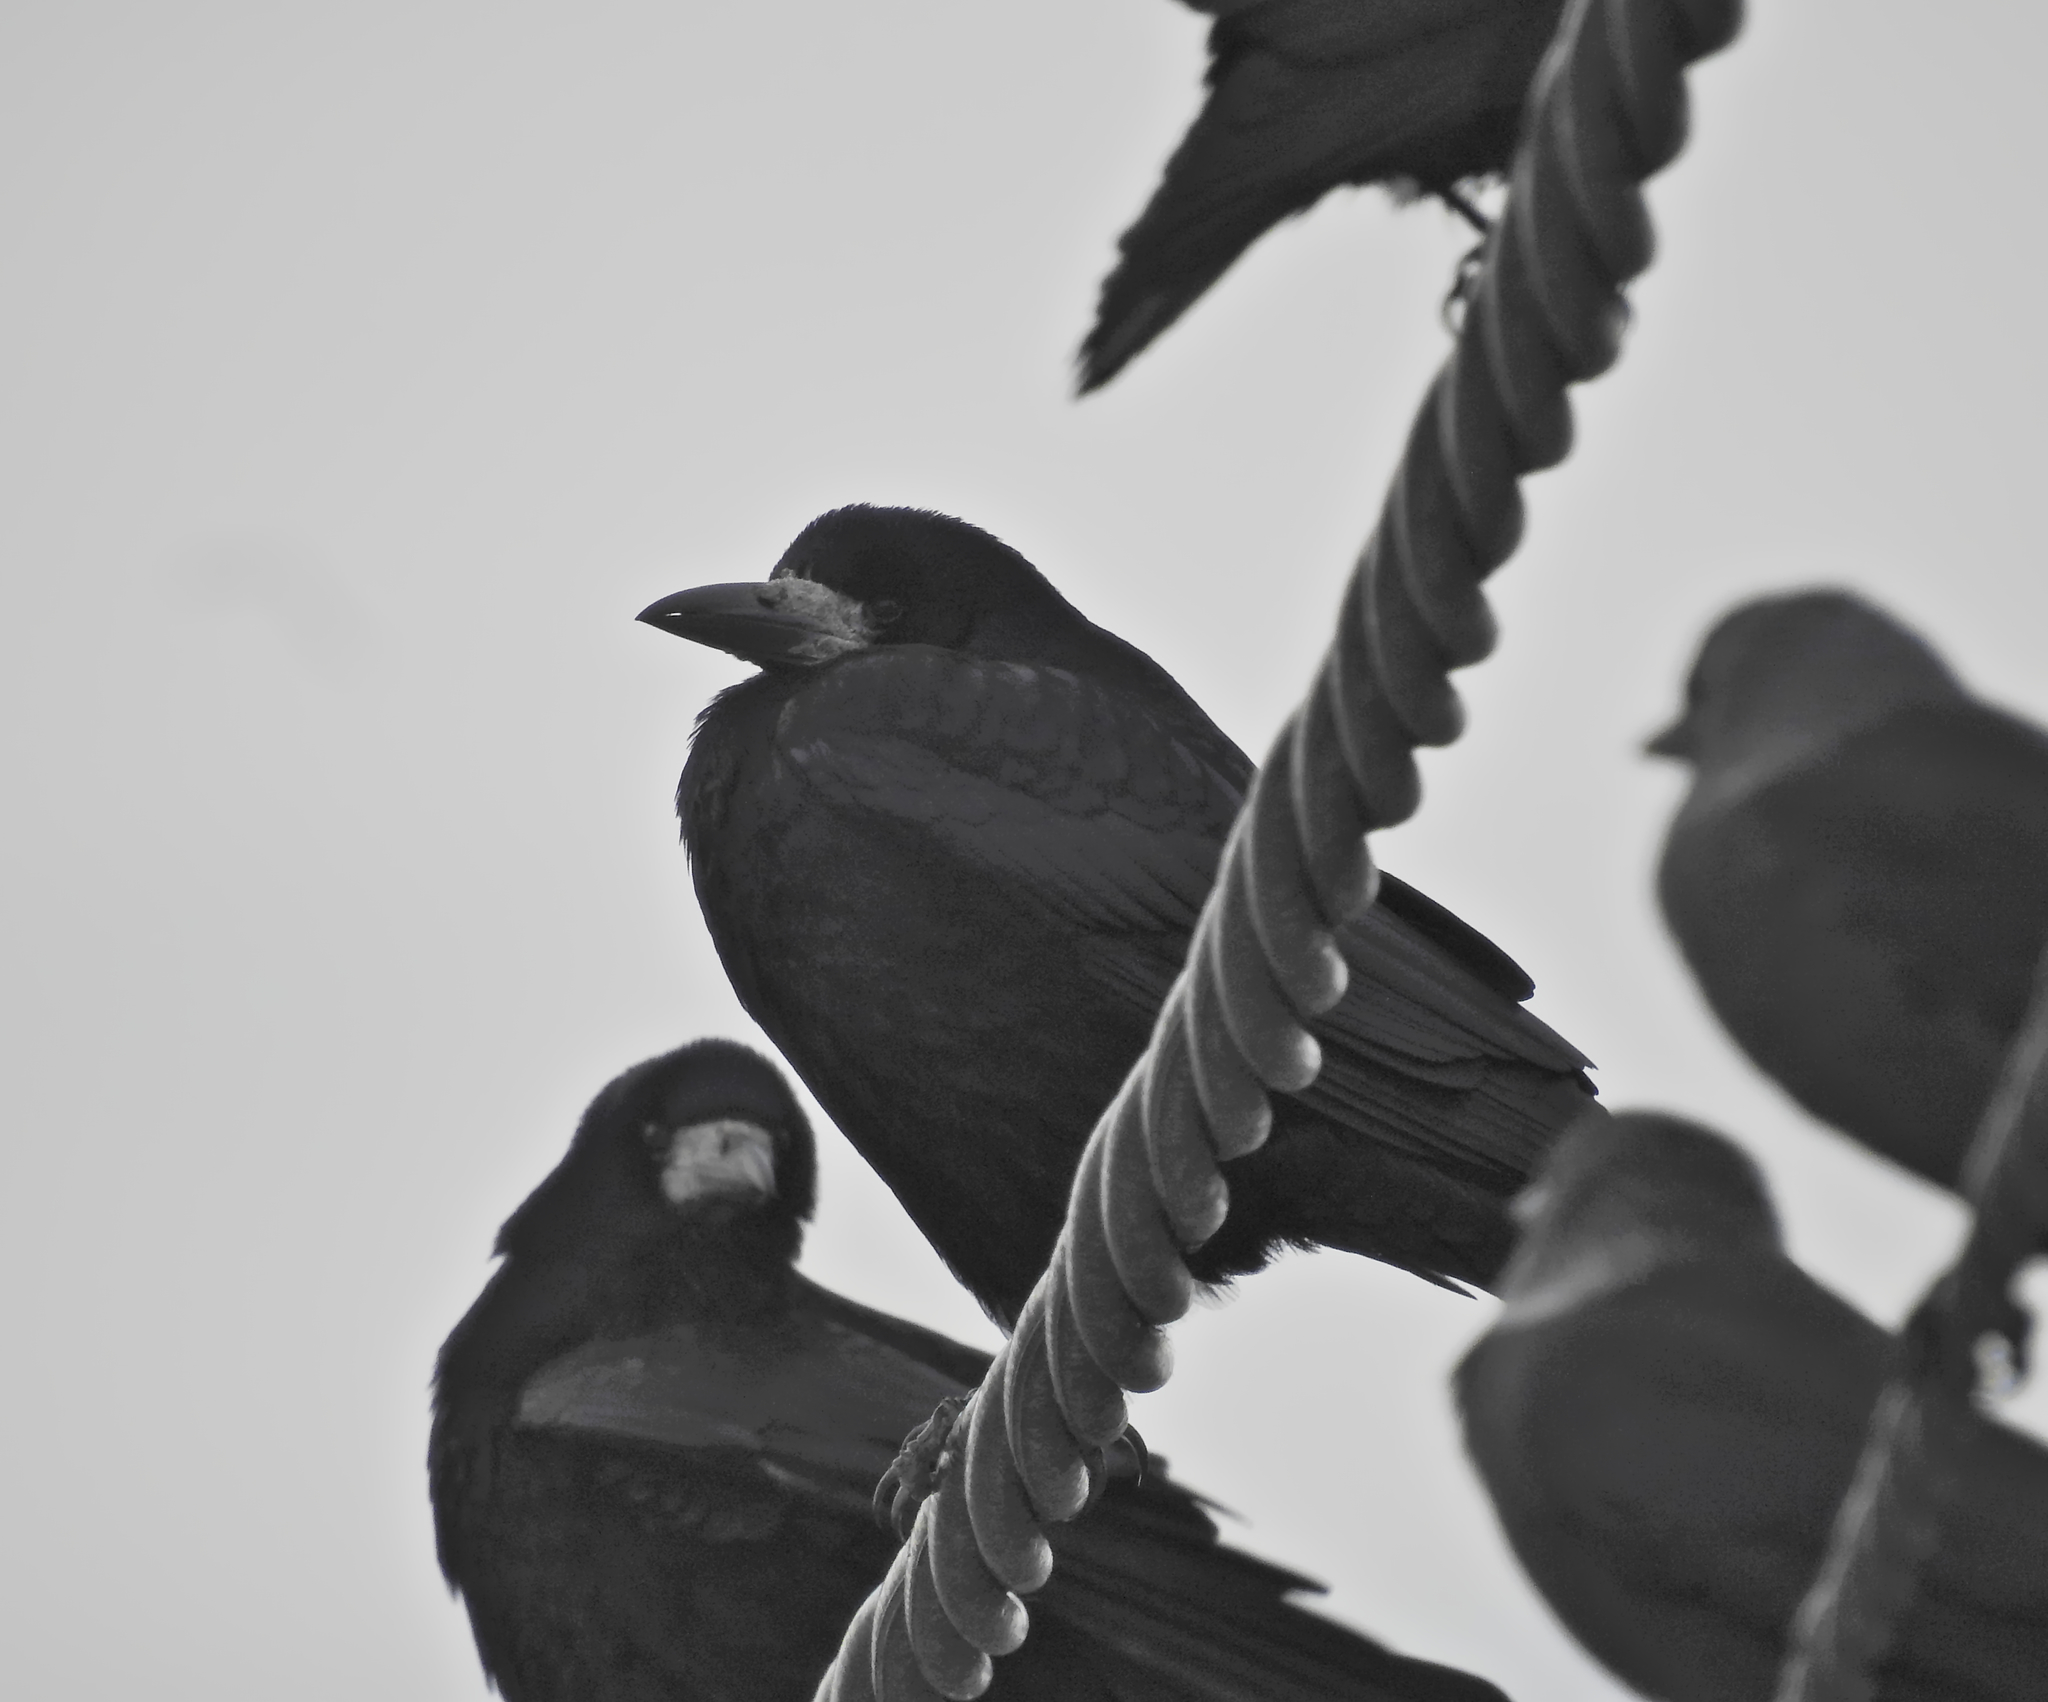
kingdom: Animalia
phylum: Chordata
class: Aves
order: Passeriformes
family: Corvidae
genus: Corvus
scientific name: Corvus frugilegus
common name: Rook
